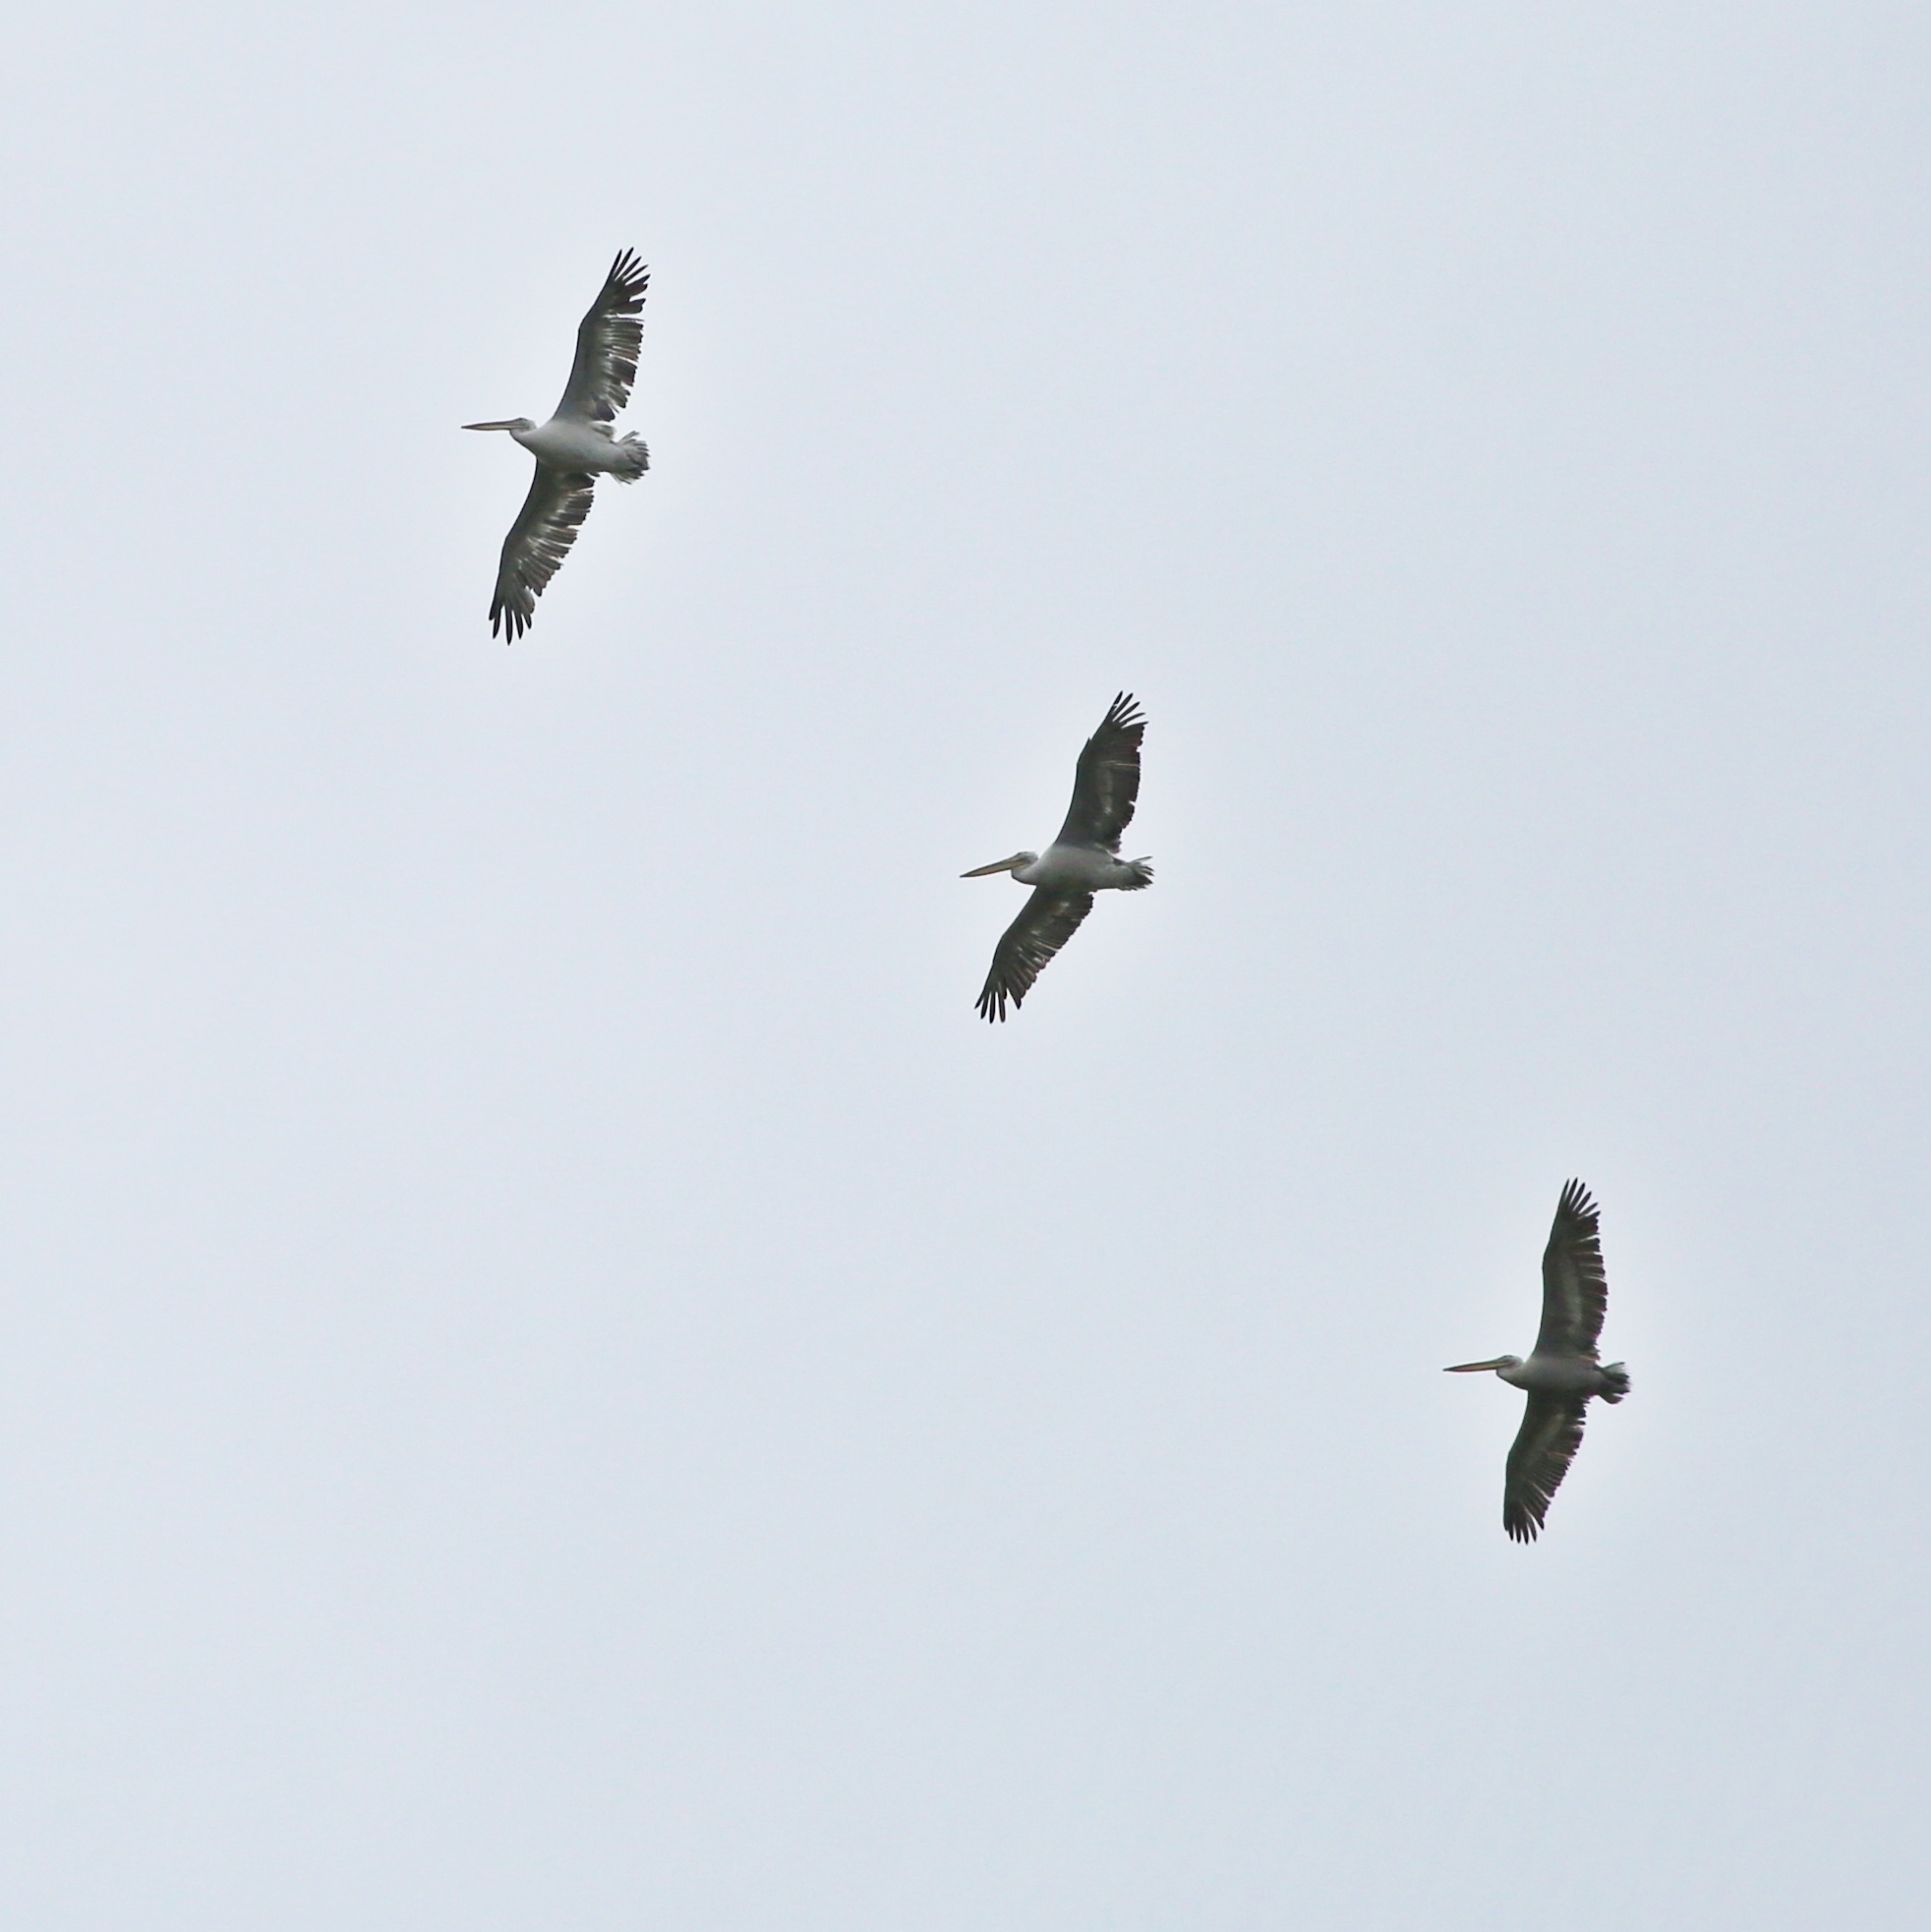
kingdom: Animalia
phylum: Chordata
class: Aves
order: Pelecaniformes
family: Pelecanidae
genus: Pelecanus
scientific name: Pelecanus crispus
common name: Dalmatian pelican
